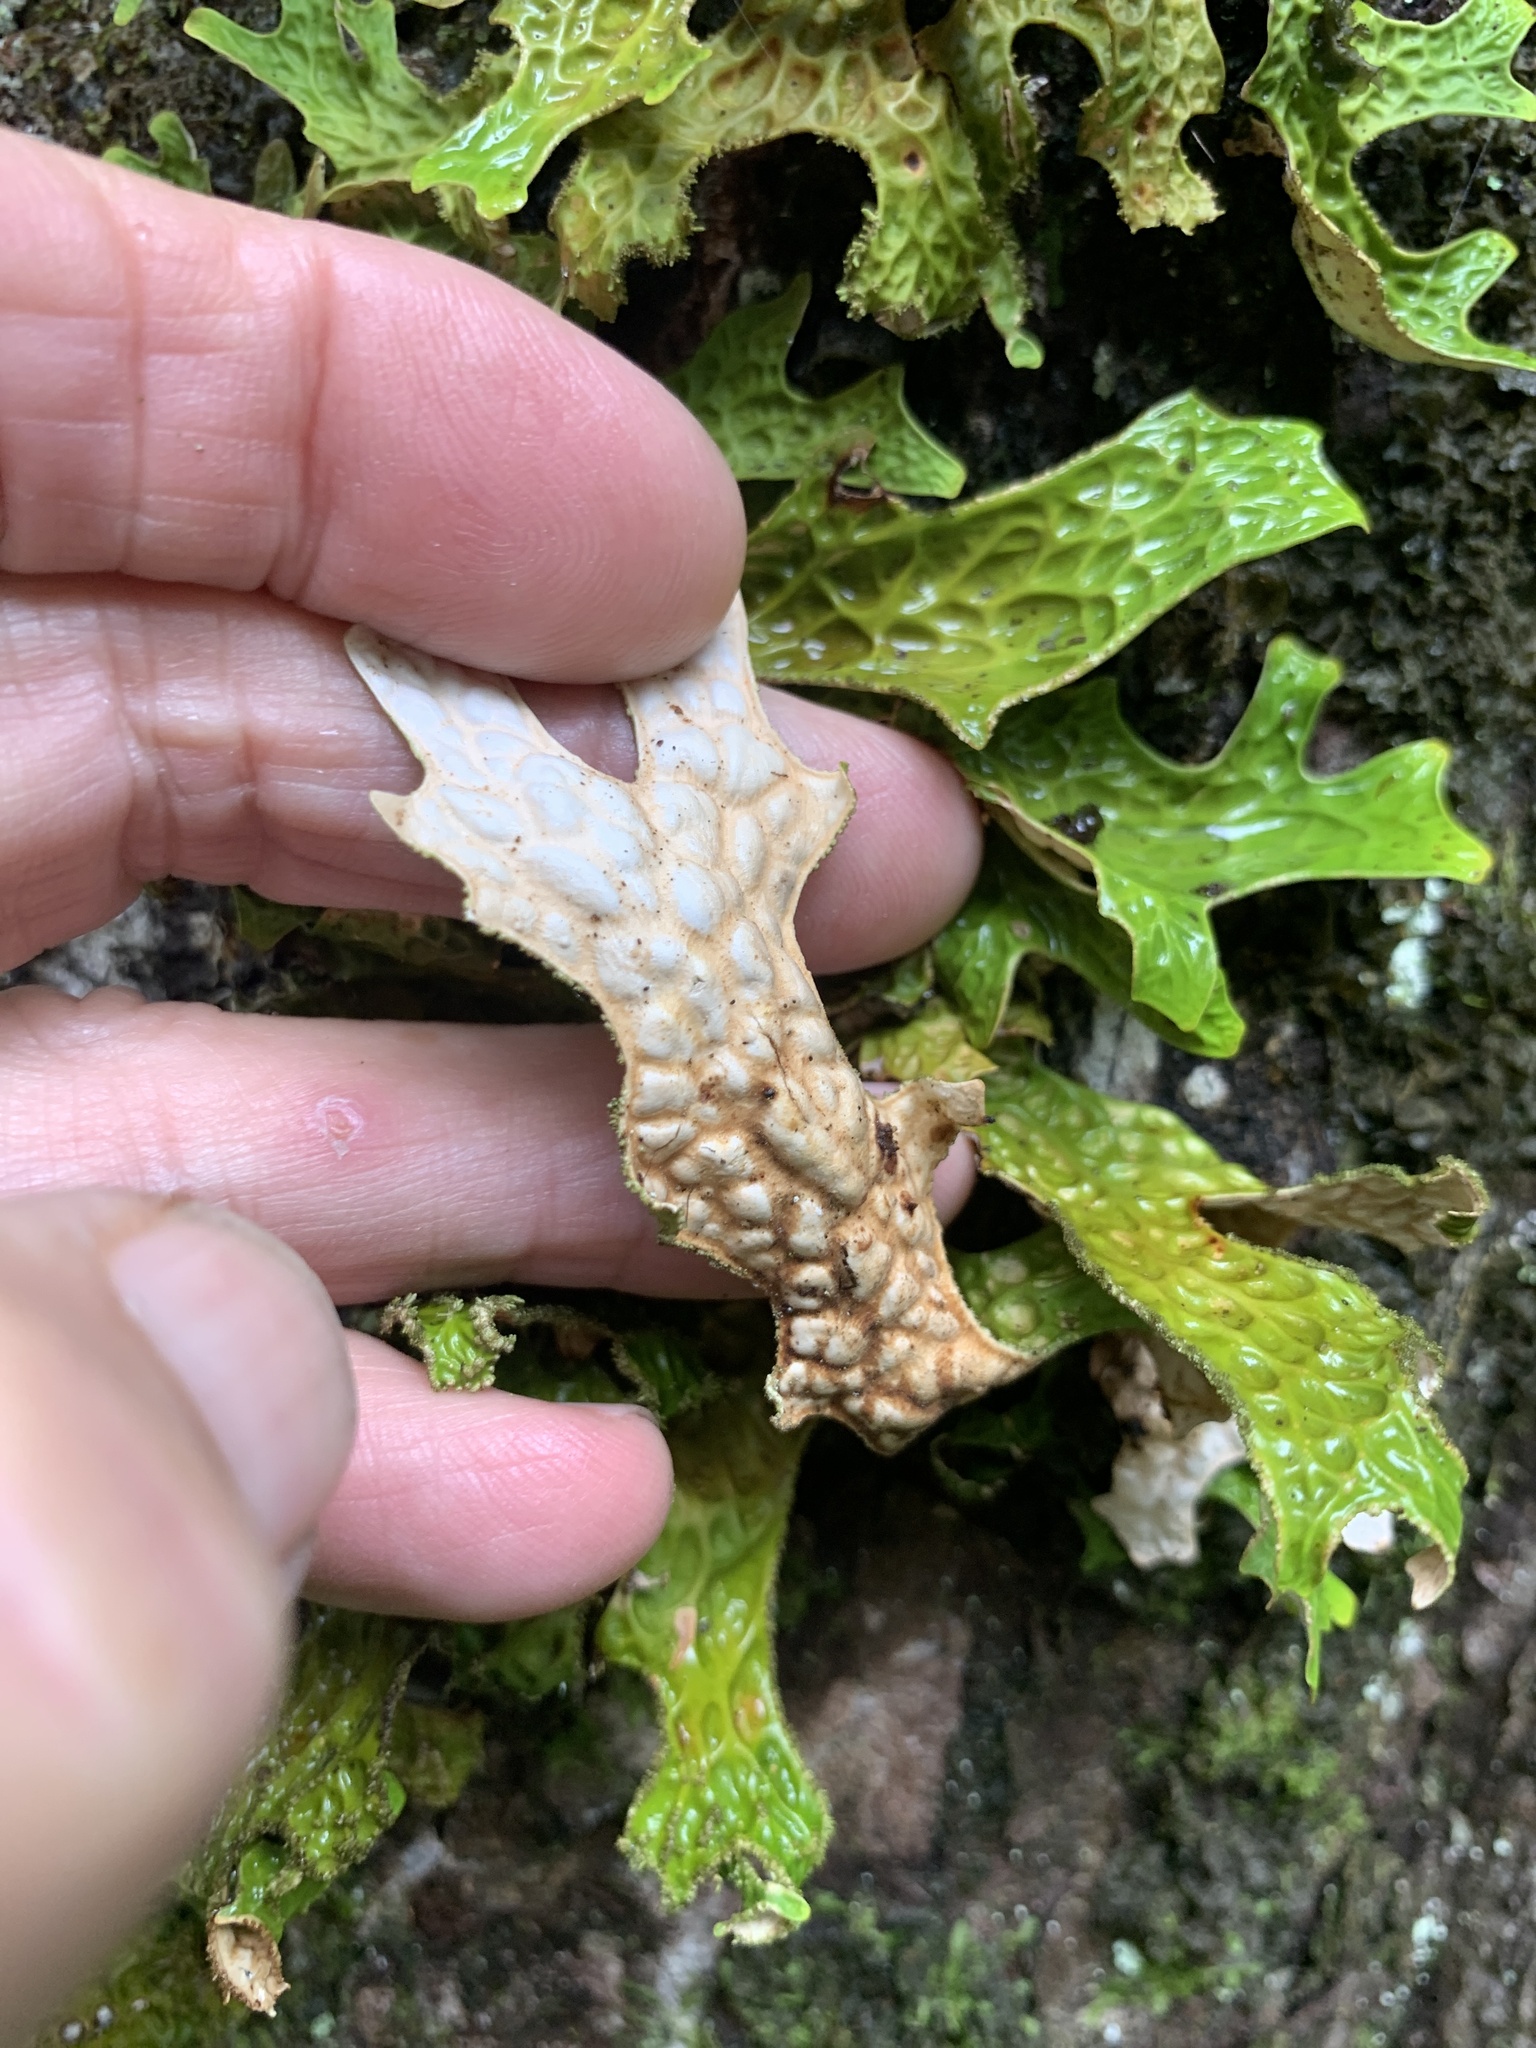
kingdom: Fungi
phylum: Ascomycota
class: Lecanoromycetes
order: Peltigerales
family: Lobariaceae
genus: Lobaria
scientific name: Lobaria pulmonaria
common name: Lungwort
